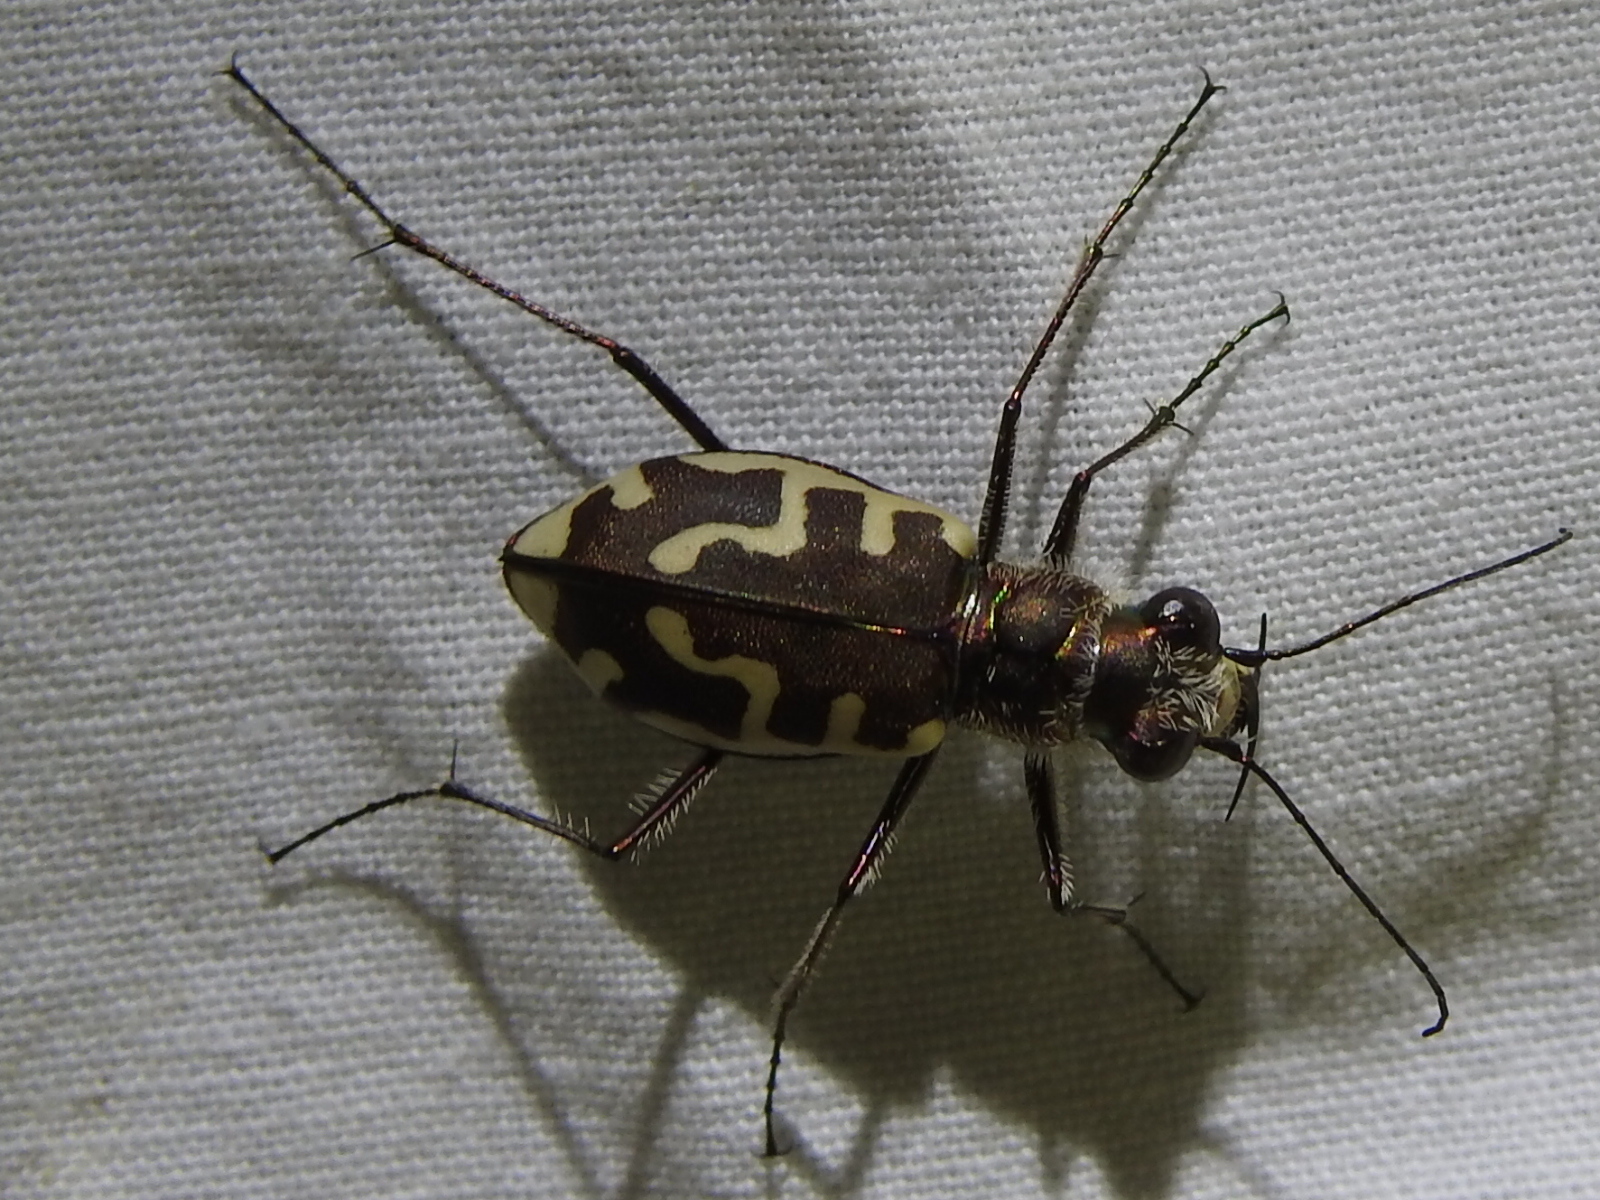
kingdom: Animalia
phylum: Arthropoda
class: Insecta
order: Coleoptera
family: Carabidae
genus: Cicindela
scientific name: Cicindela hirticollis
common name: Hairy-necked tiger beetle
